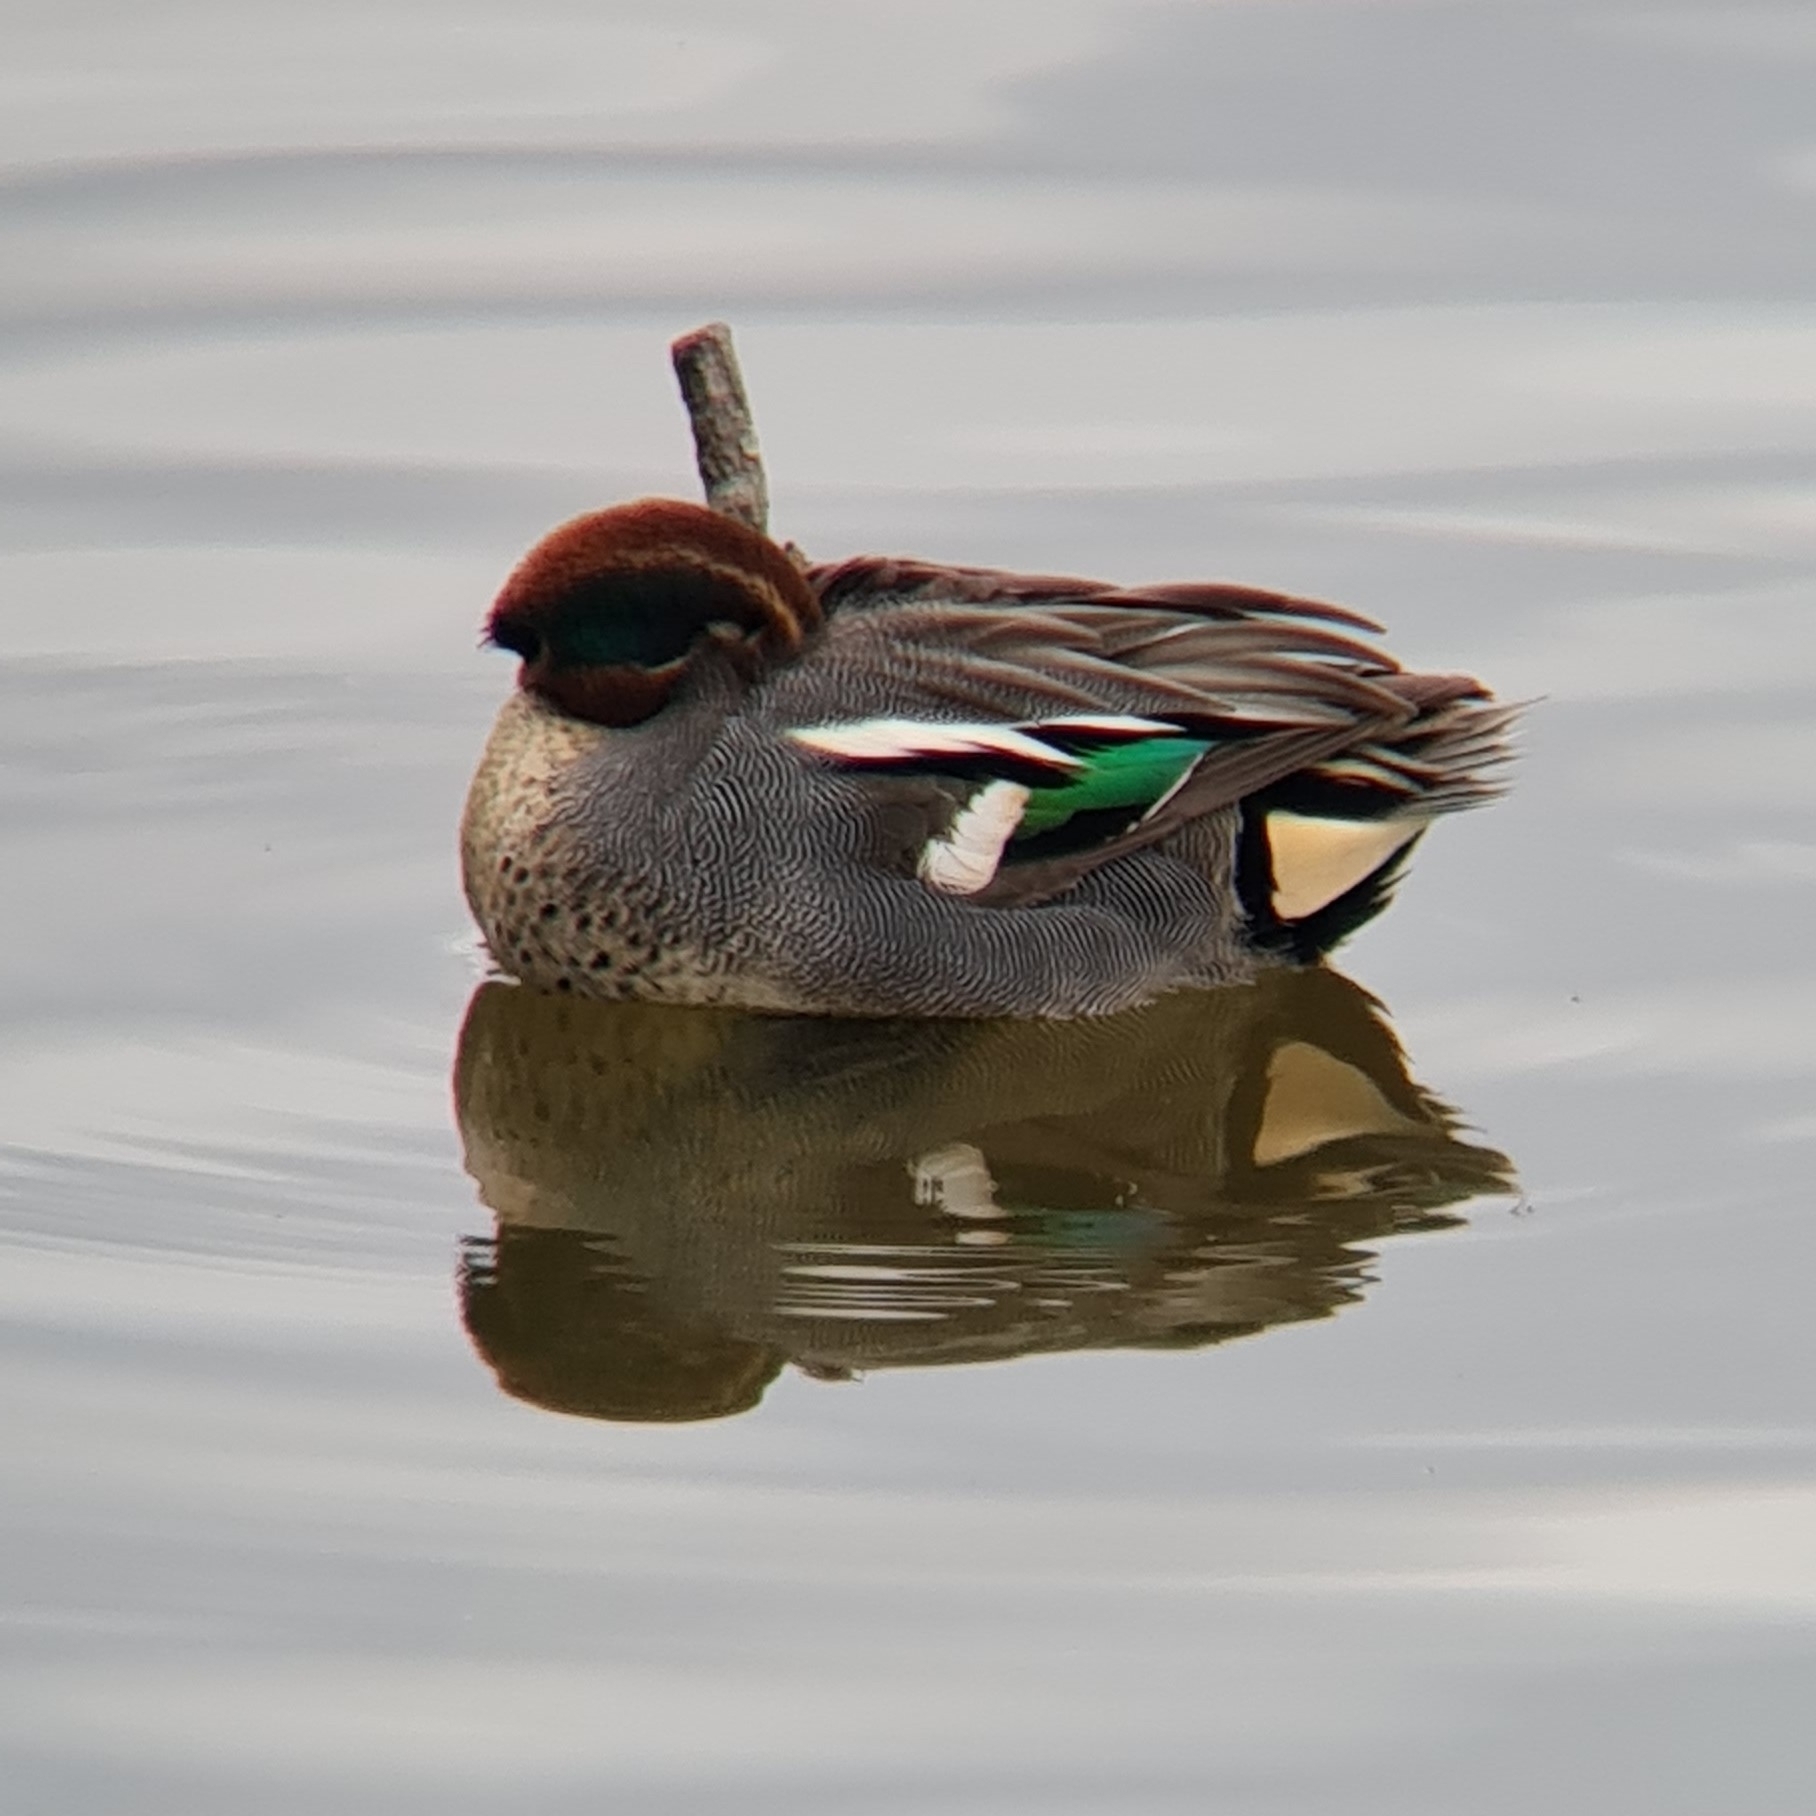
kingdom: Animalia
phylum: Chordata
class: Aves
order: Anseriformes
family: Anatidae
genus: Anas
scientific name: Anas crecca
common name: Eurasian teal
